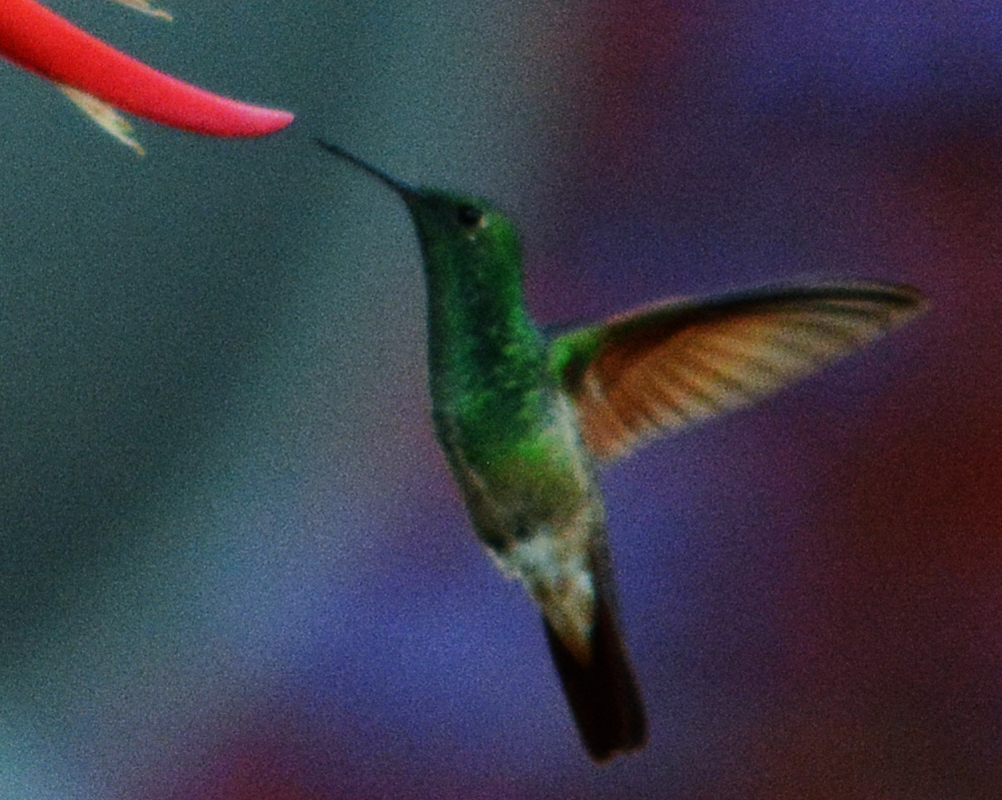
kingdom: Animalia
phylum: Chordata
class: Aves
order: Apodiformes
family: Trochilidae
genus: Saucerottia
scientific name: Saucerottia beryllina
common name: Berylline hummingbird
